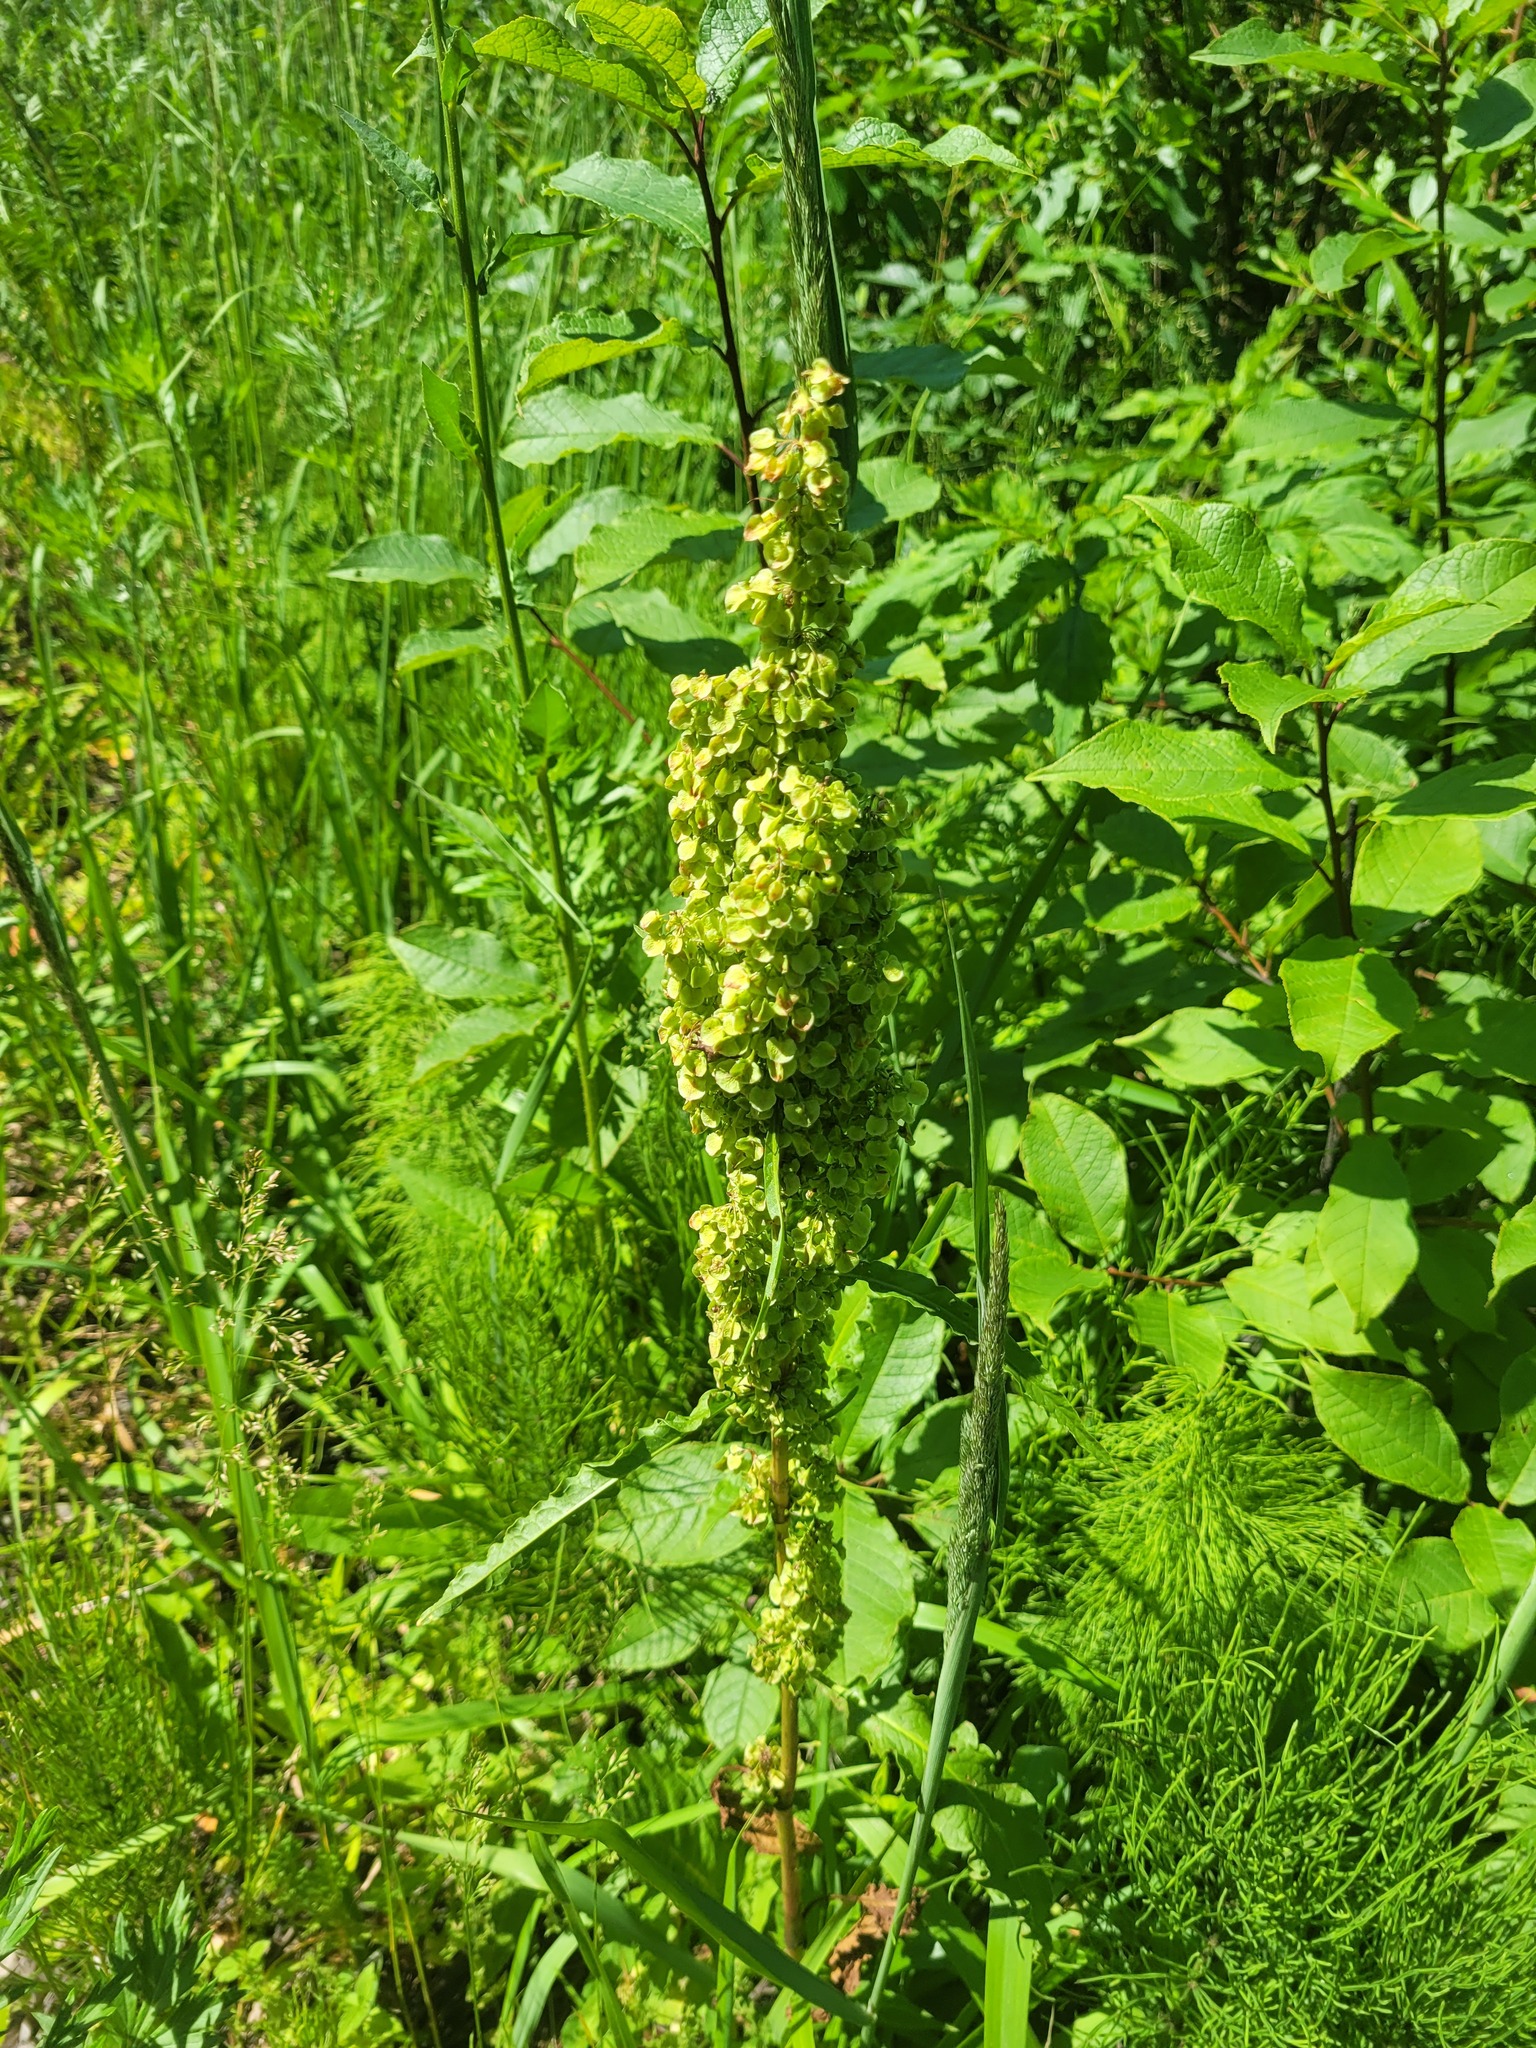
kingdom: Plantae
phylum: Tracheophyta
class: Magnoliopsida
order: Caryophyllales
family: Polygonaceae
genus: Rumex
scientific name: Rumex longifolius
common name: Dooryard dock
